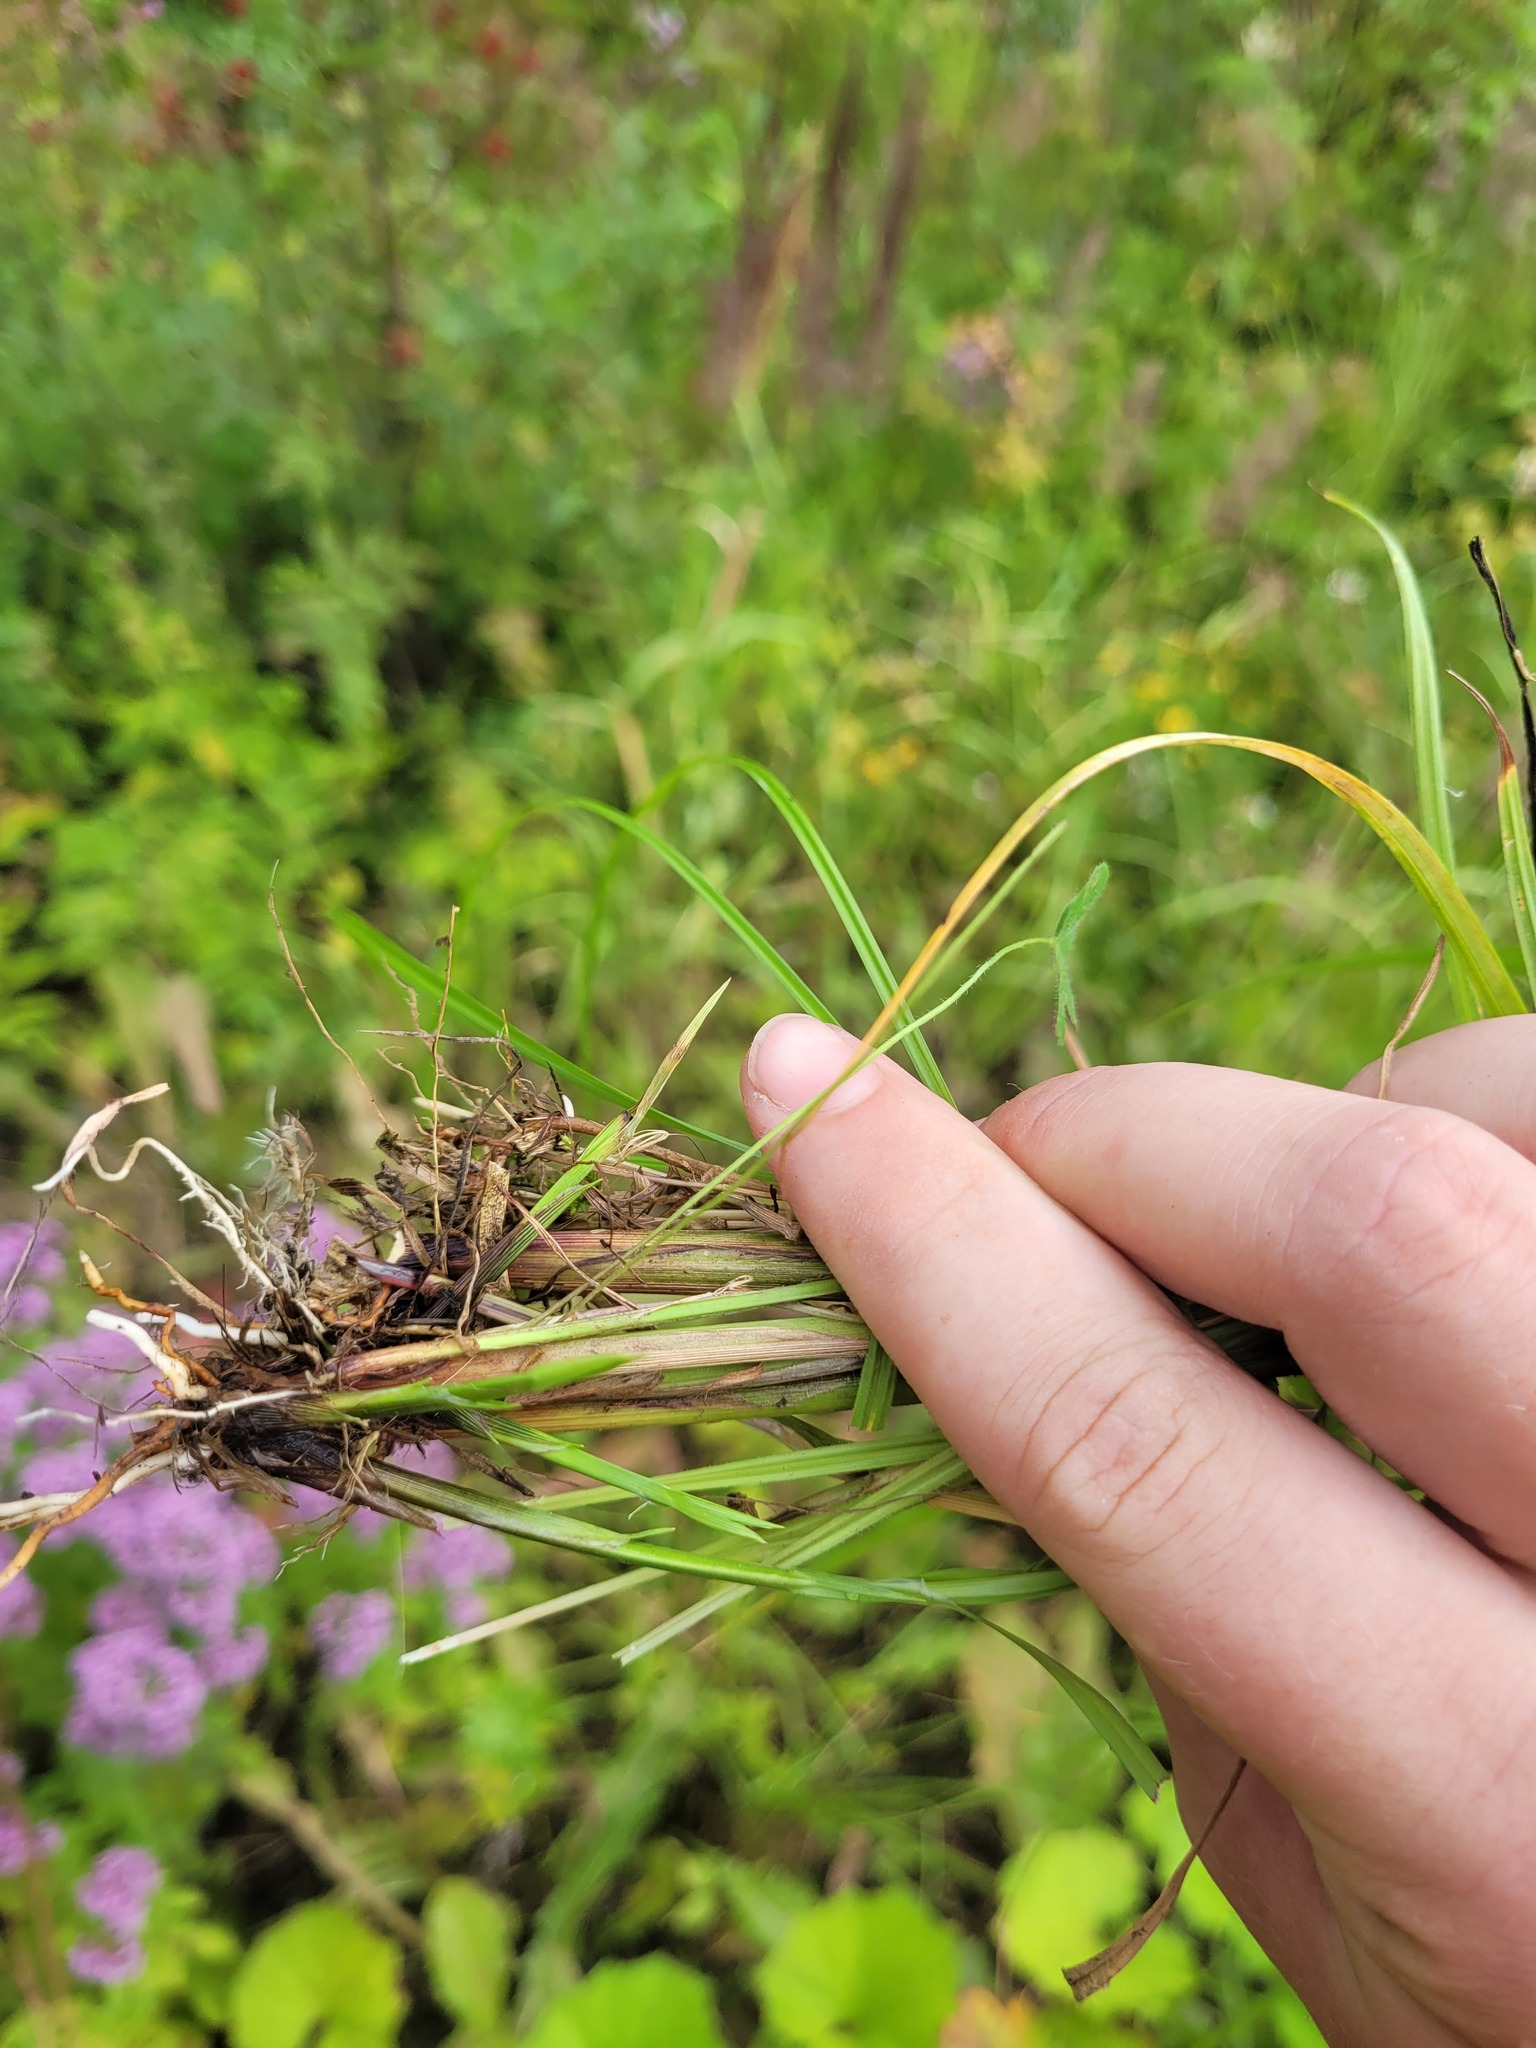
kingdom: Plantae
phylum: Tracheophyta
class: Liliopsida
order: Poales
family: Cyperaceae
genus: Carex
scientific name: Carex spicata
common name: Spiked sedge
